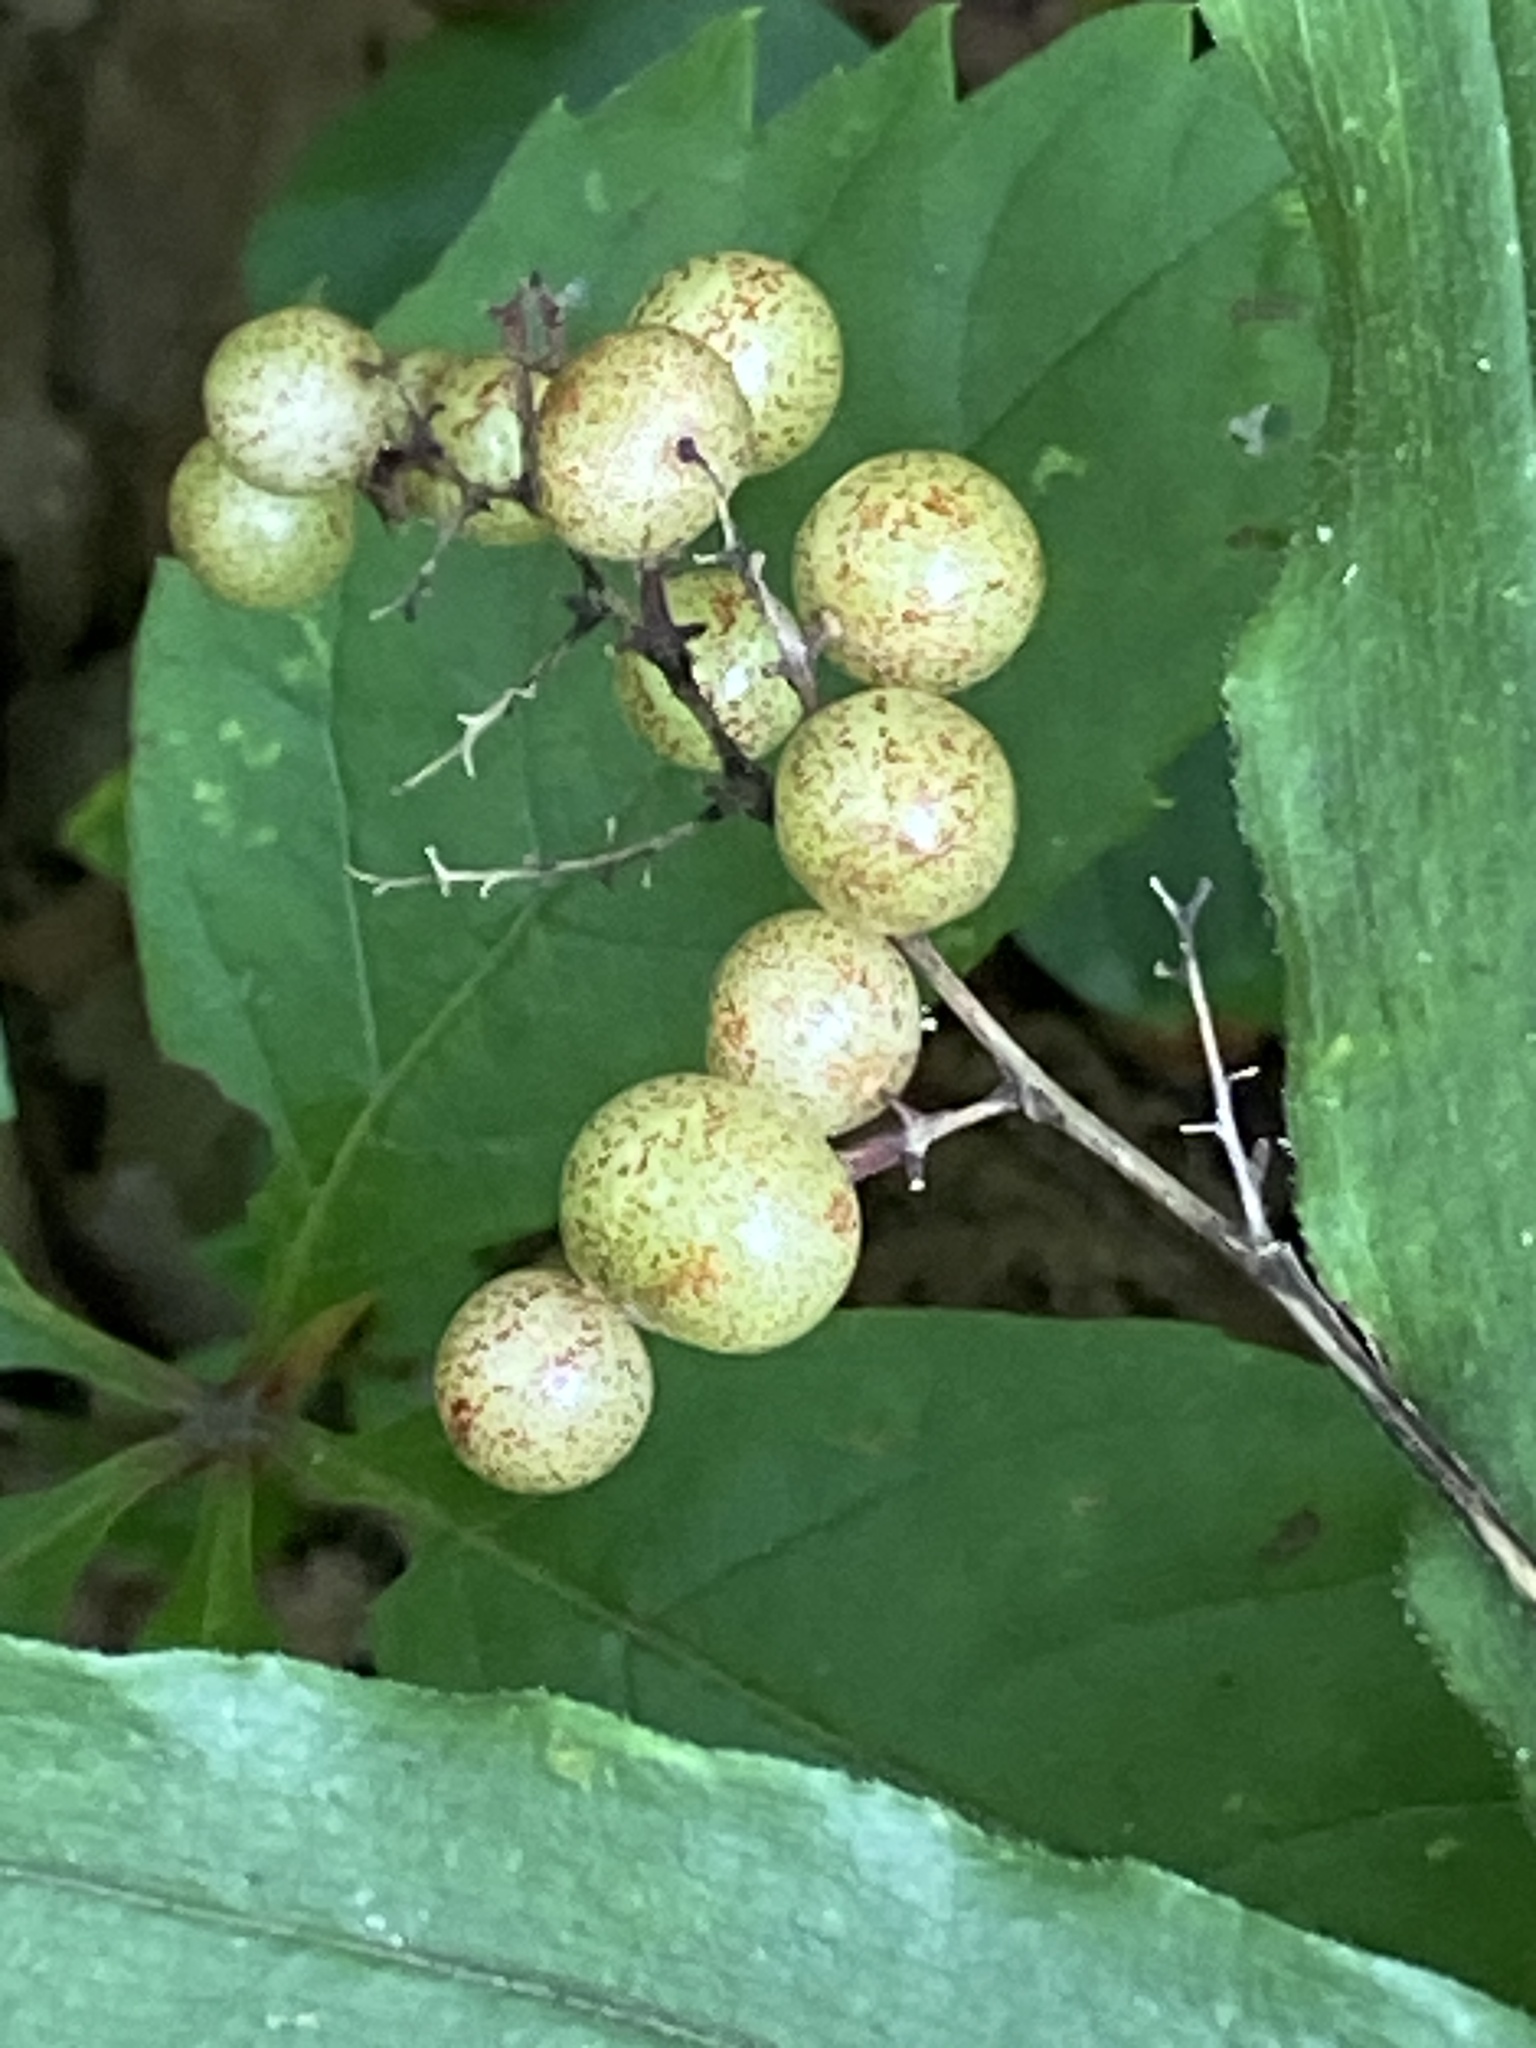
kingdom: Plantae
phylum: Tracheophyta
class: Liliopsida
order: Asparagales
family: Asparagaceae
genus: Maianthemum
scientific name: Maianthemum racemosum
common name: False spikenard
